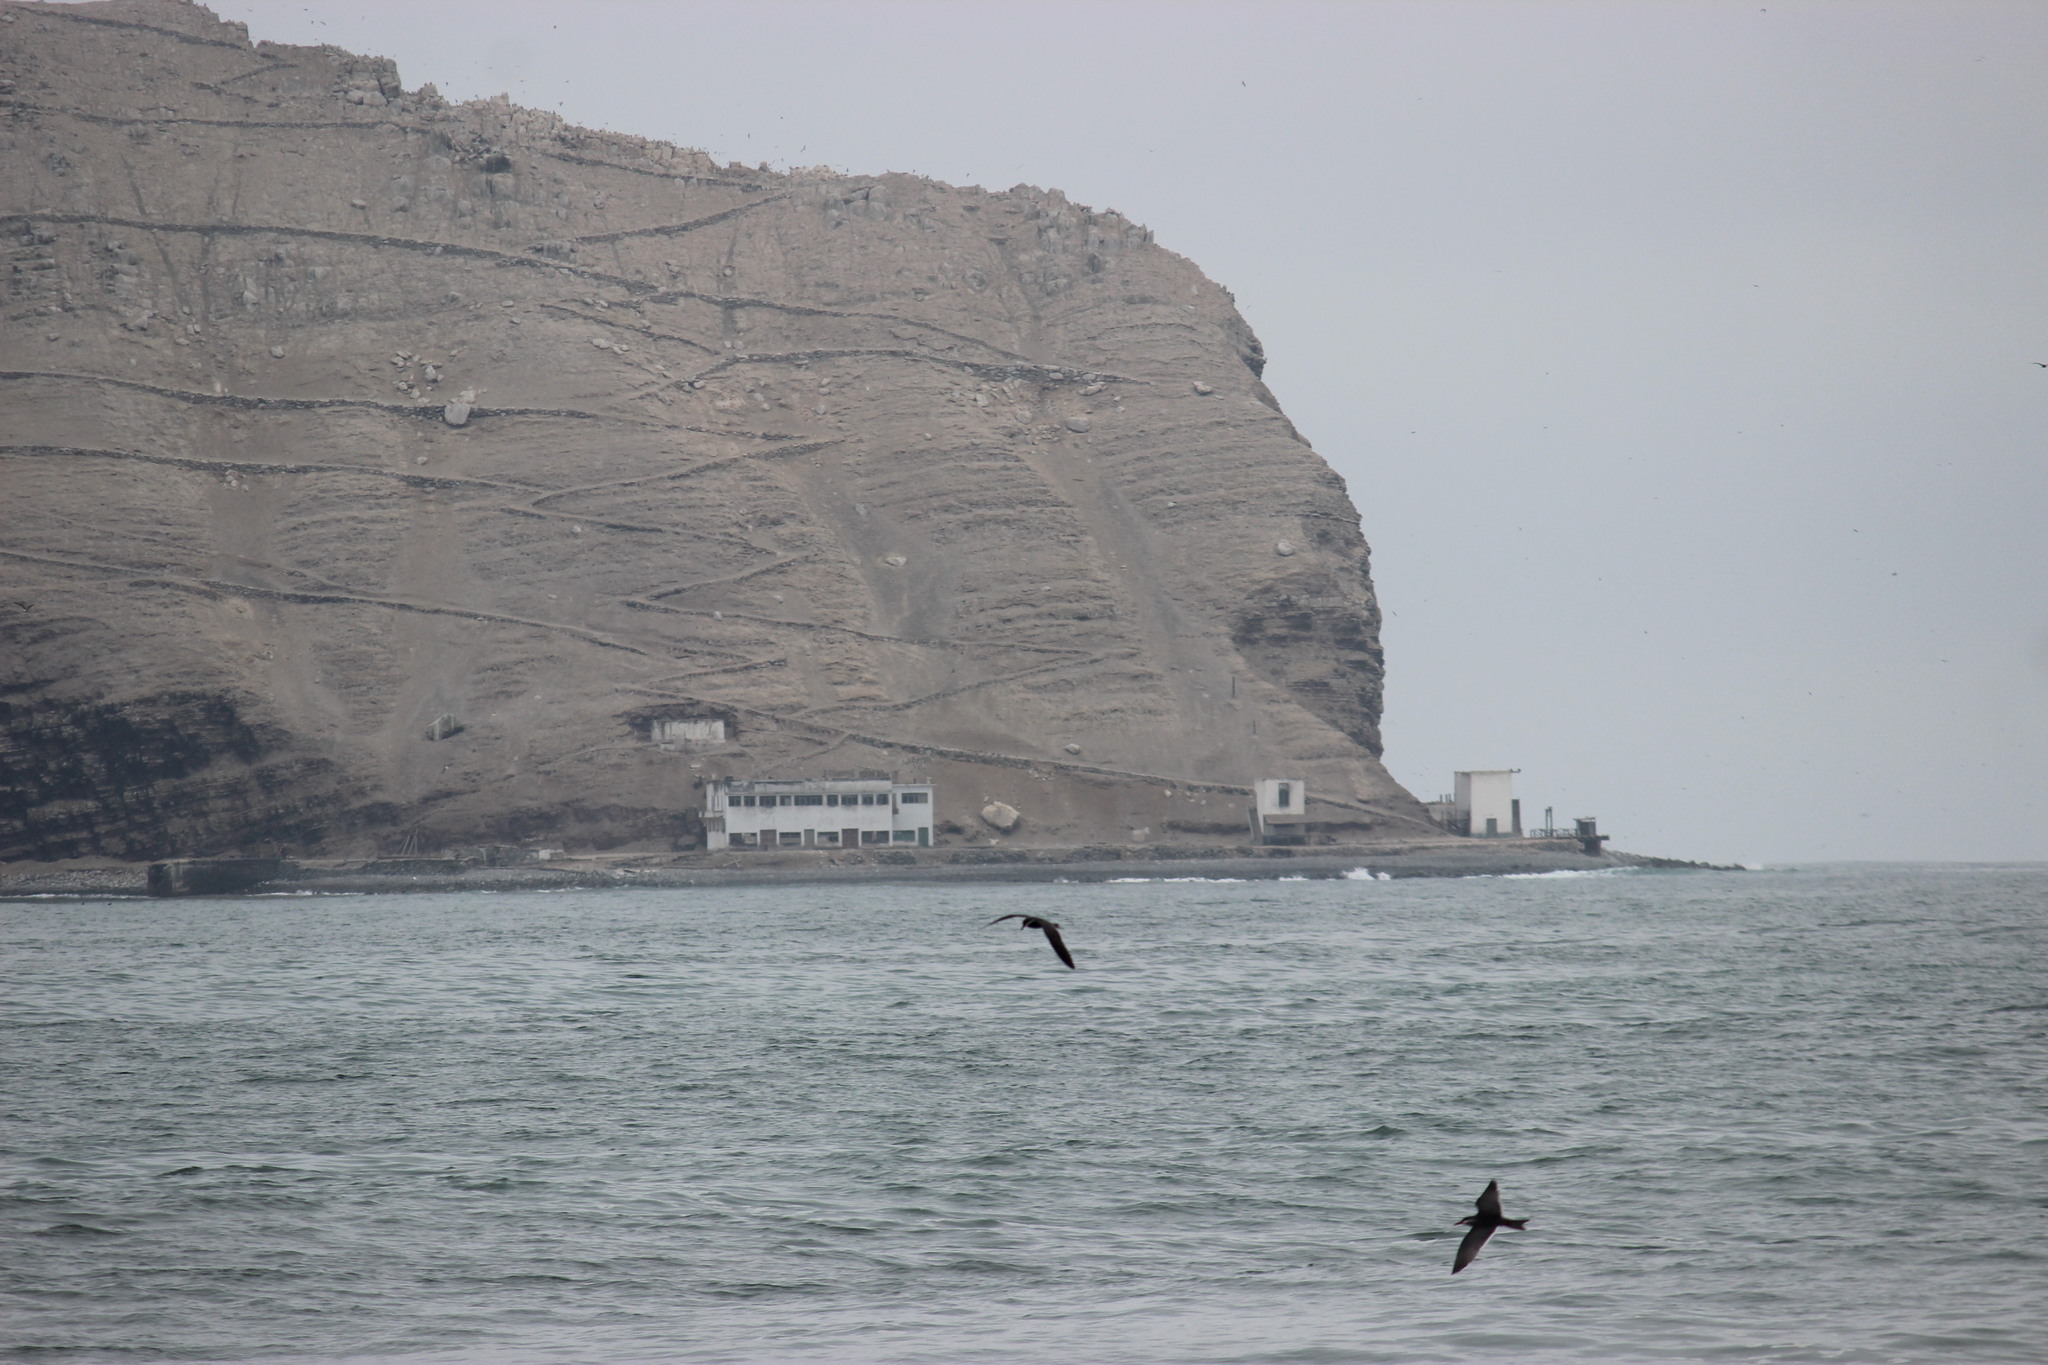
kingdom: Animalia
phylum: Chordata
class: Aves
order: Charadriiformes
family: Laridae
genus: Larosterna
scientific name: Larosterna inca
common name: Inca tern
